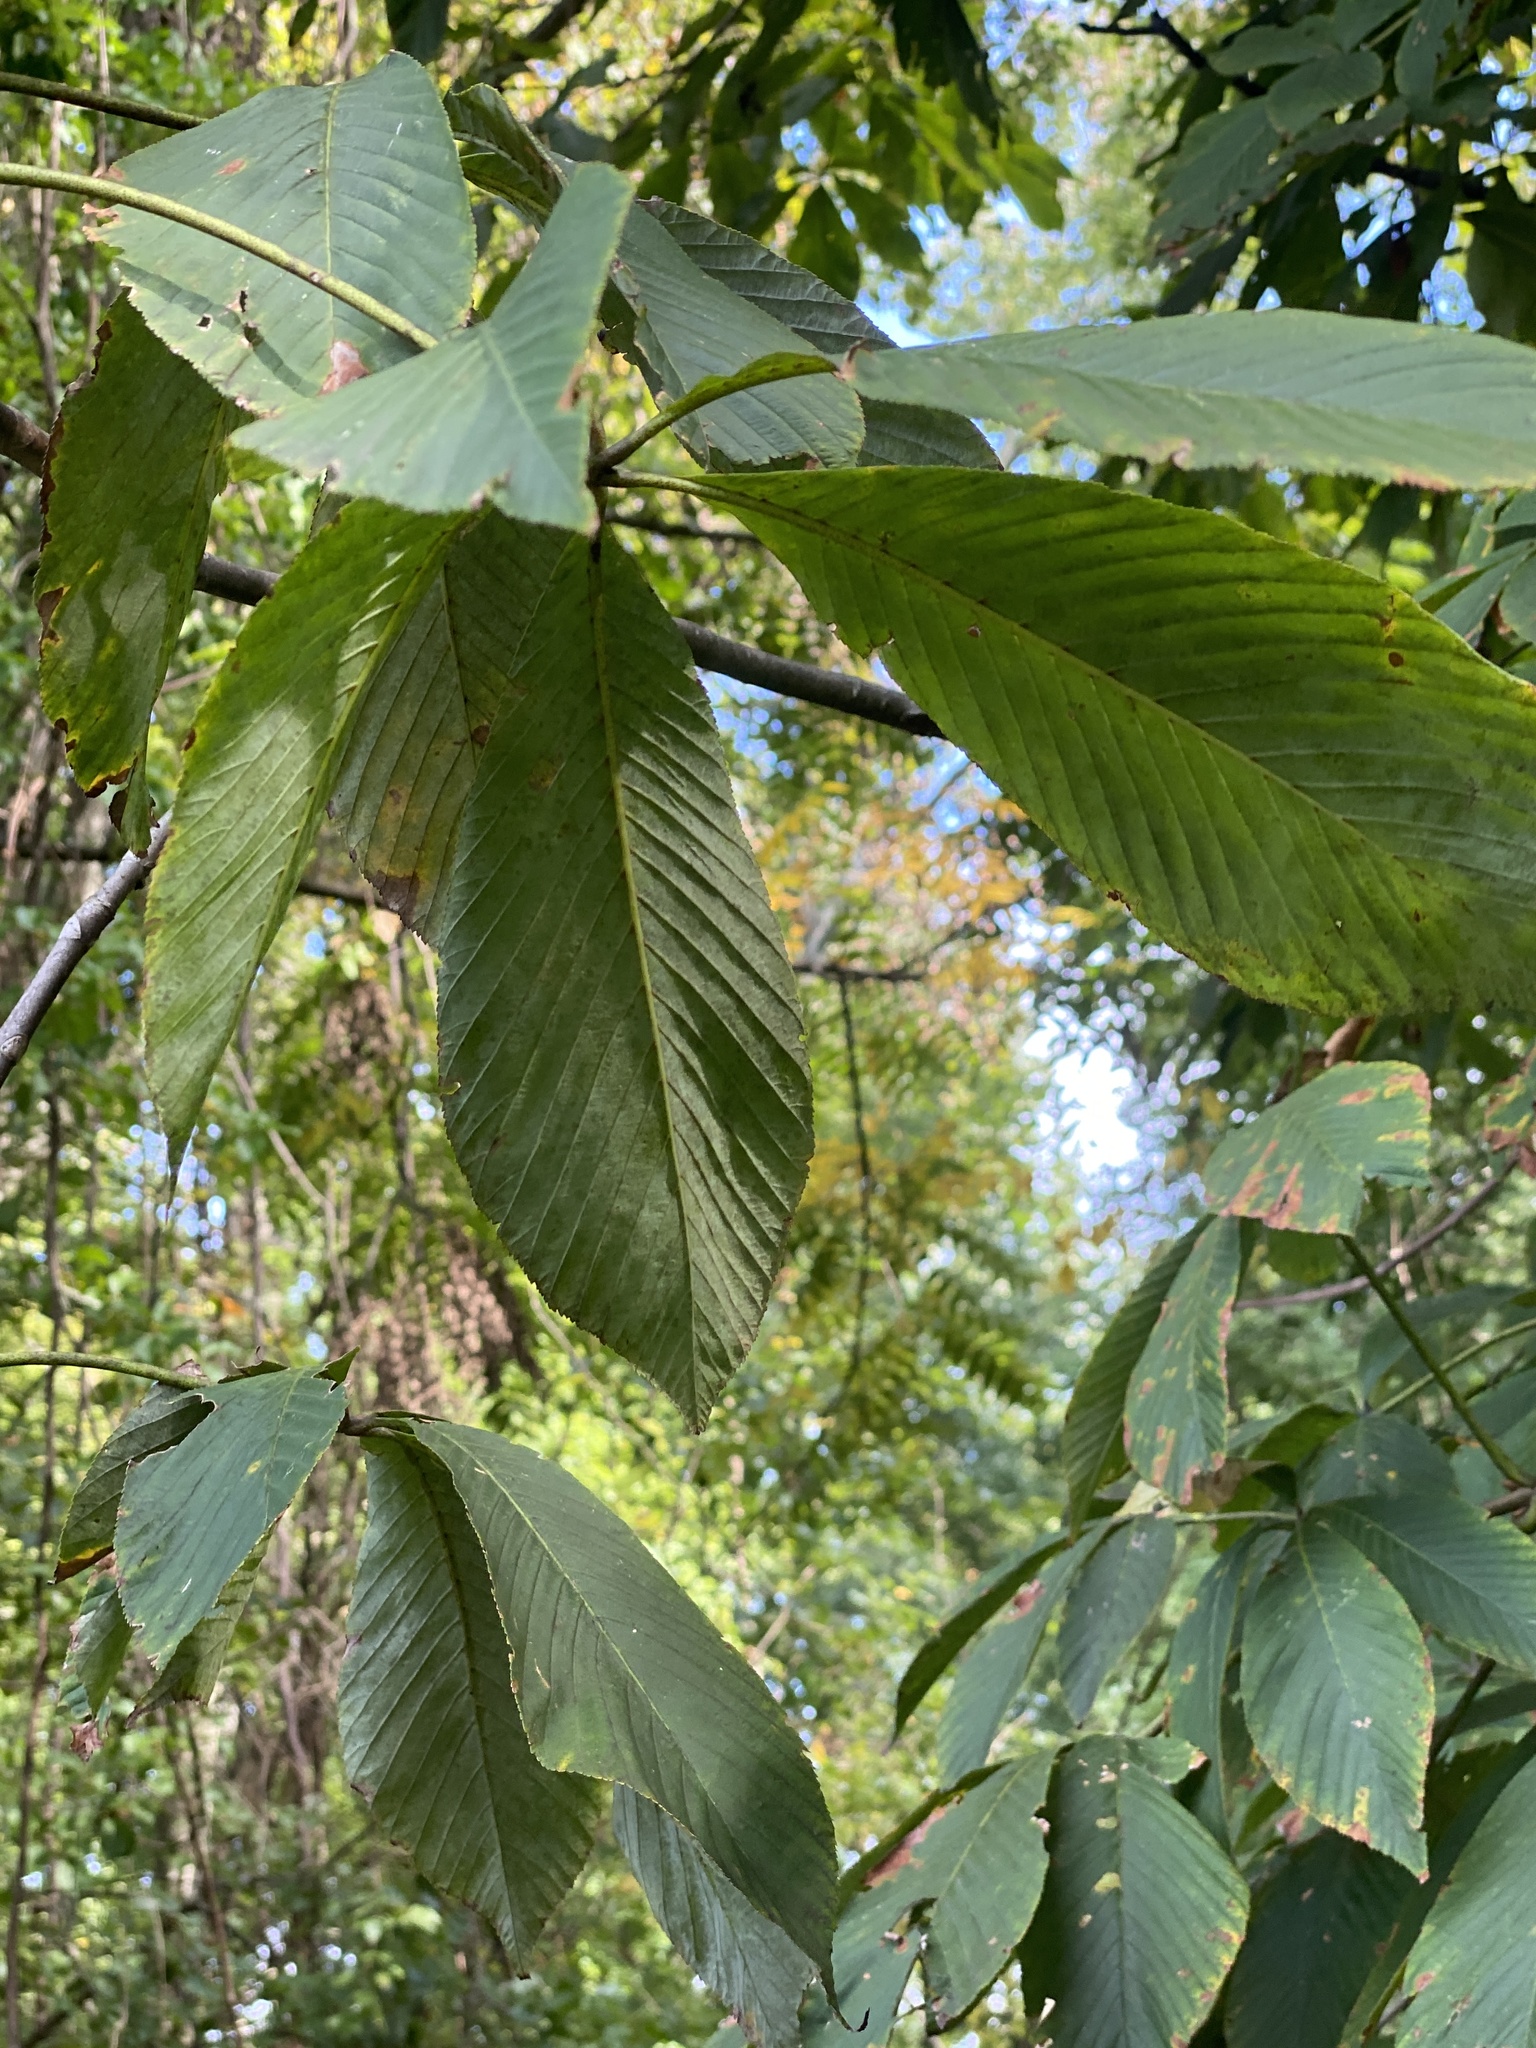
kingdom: Plantae
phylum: Tracheophyta
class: Magnoliopsida
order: Sapindales
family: Sapindaceae
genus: Aesculus
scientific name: Aesculus flava
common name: Yellow buckeye
